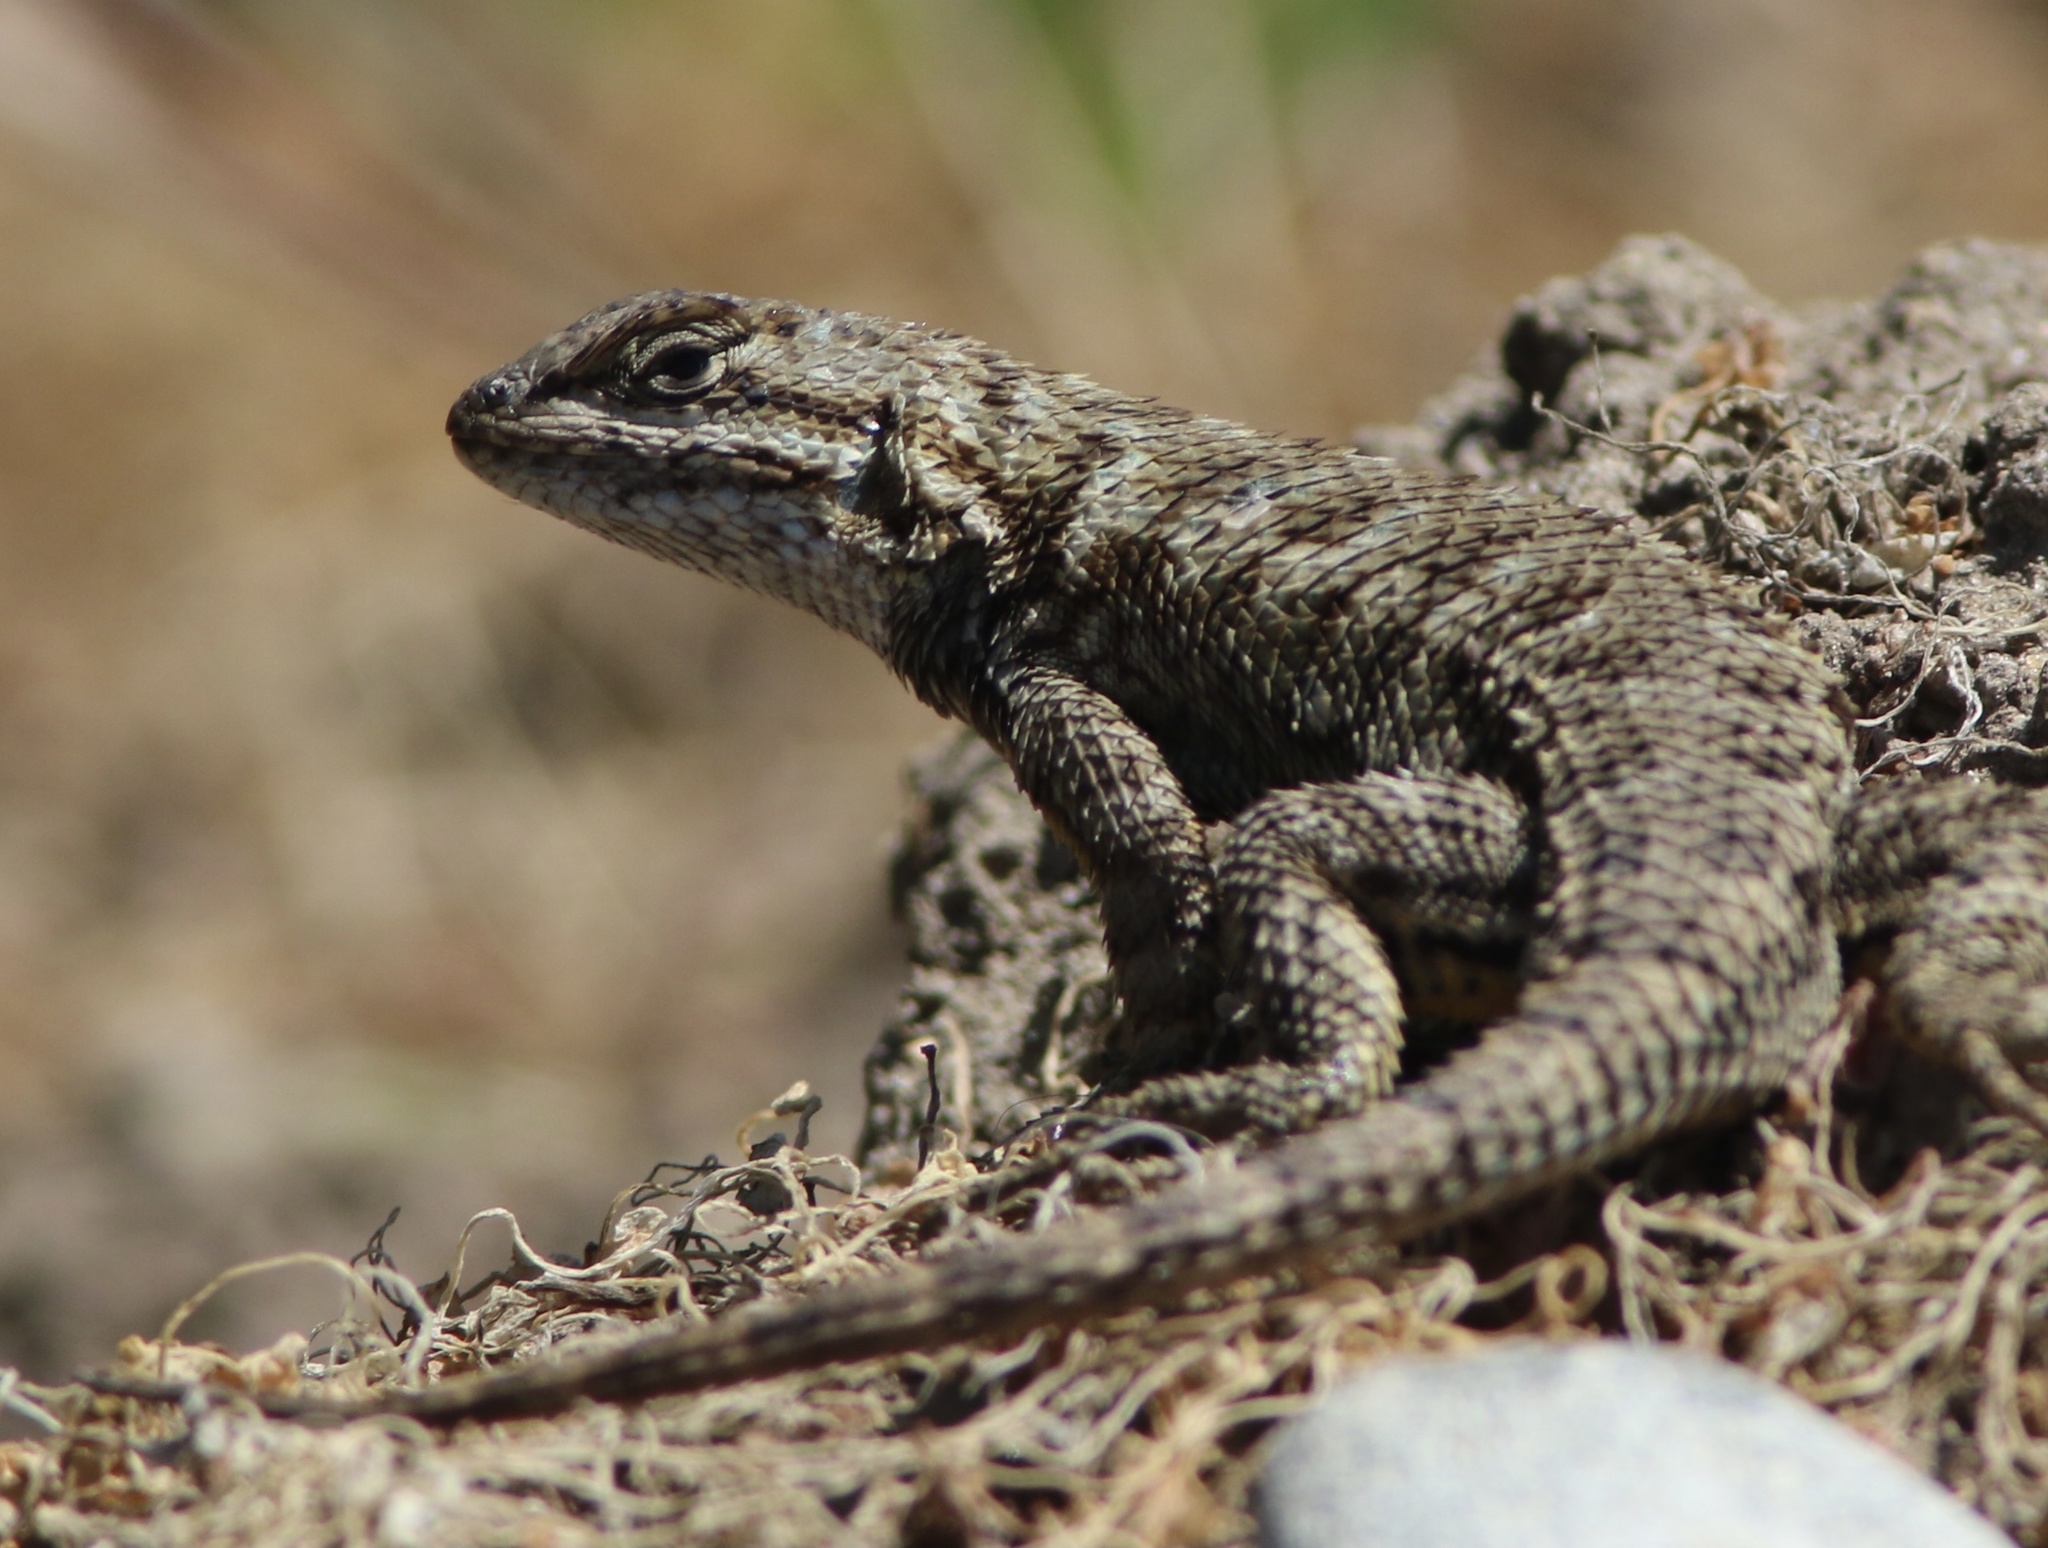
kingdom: Animalia
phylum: Chordata
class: Squamata
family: Phrynosomatidae
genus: Sceloporus
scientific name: Sceloporus occidentalis
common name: Western fence lizard
